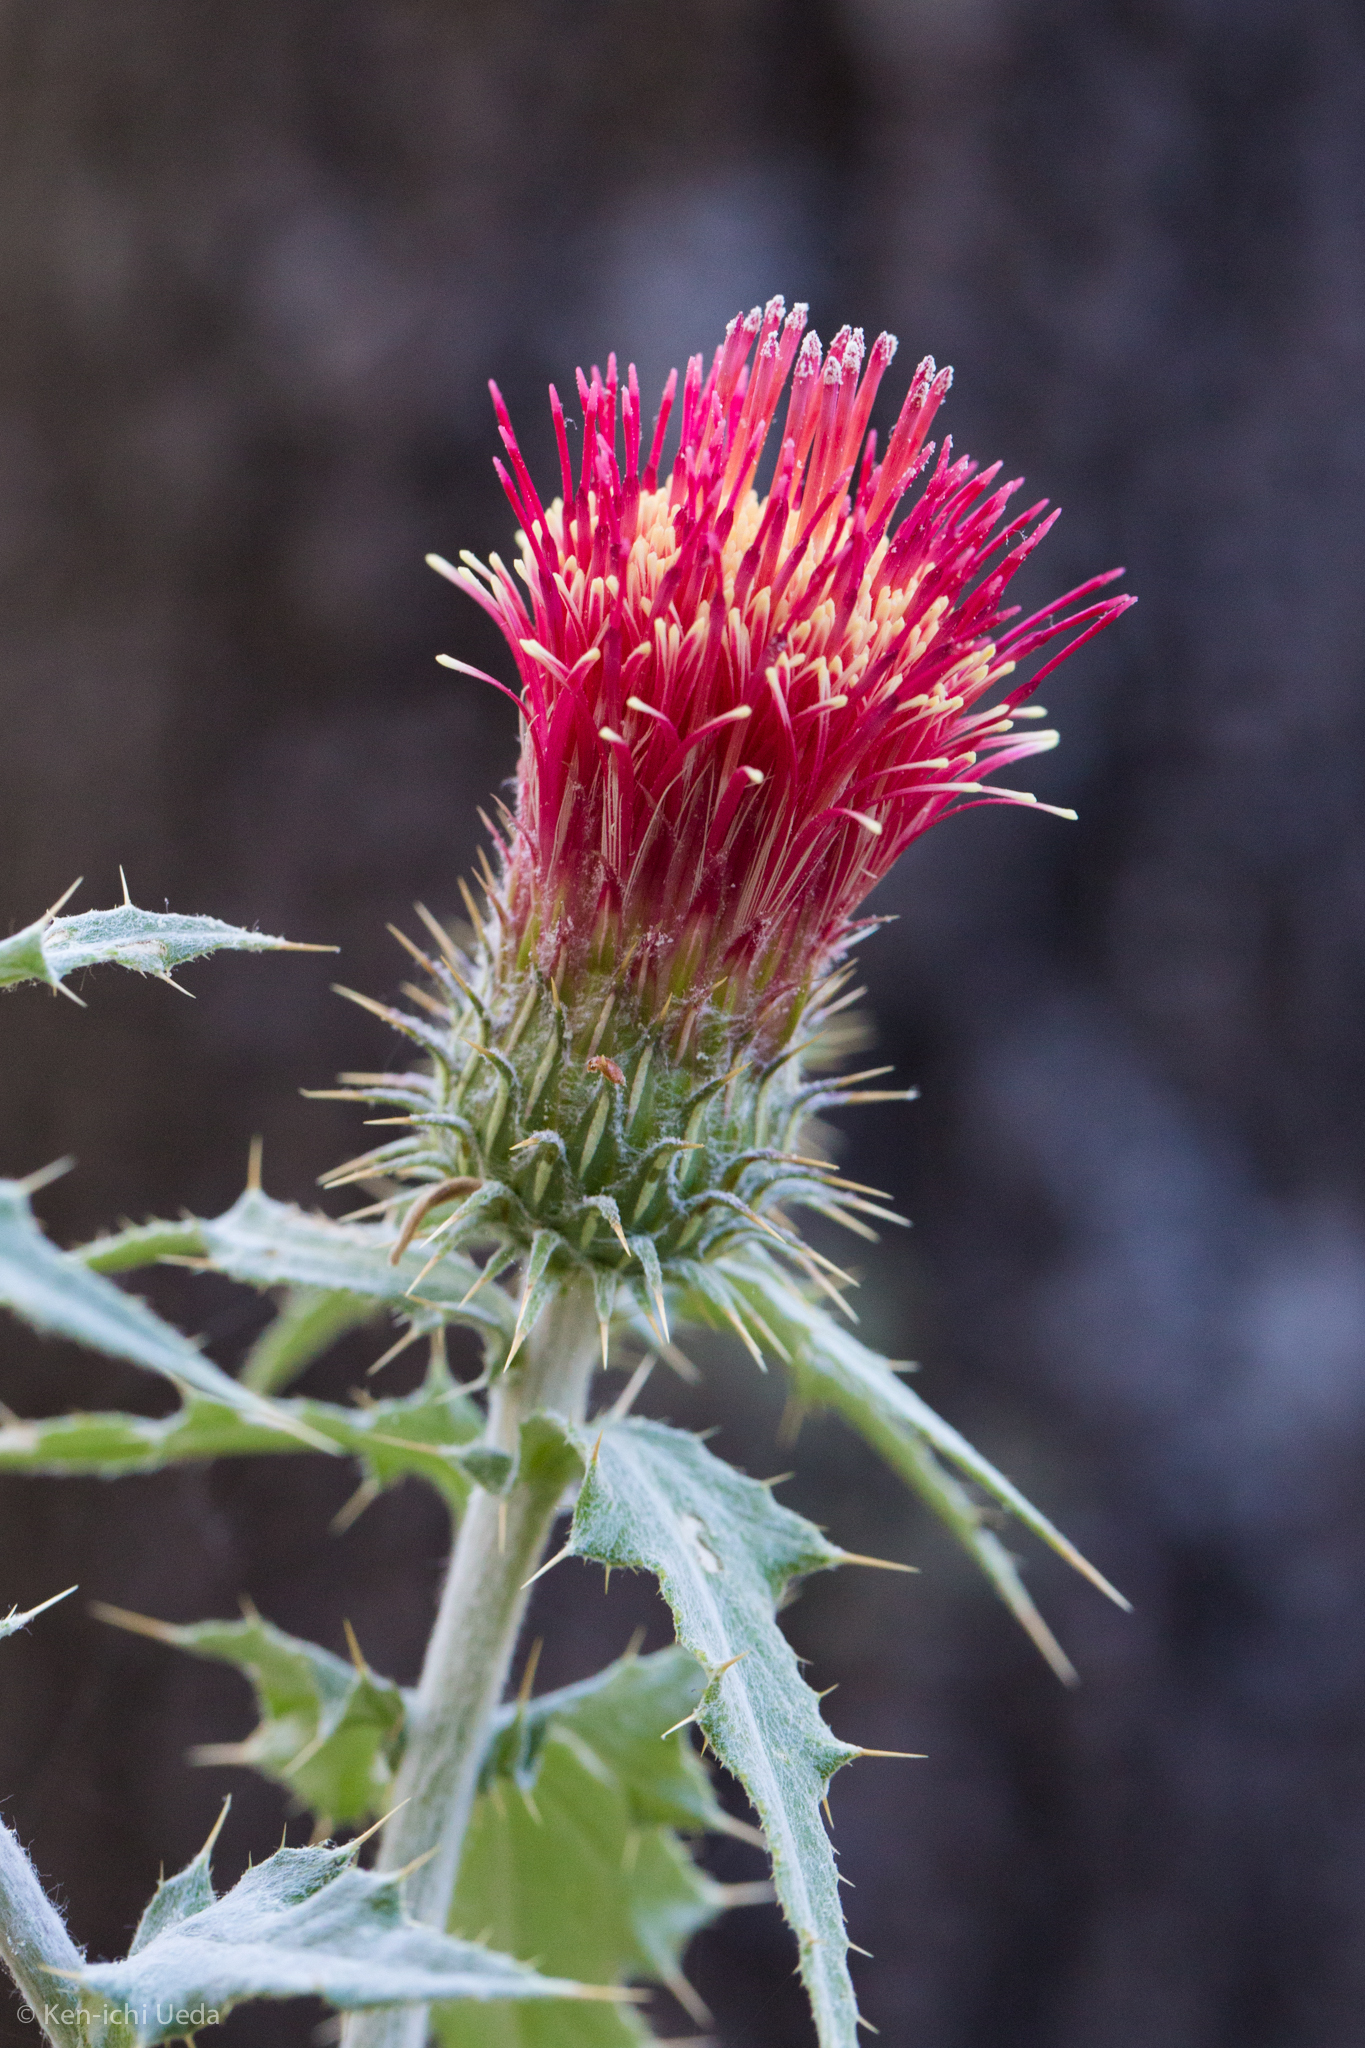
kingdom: Plantae
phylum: Tracheophyta
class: Magnoliopsida
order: Asterales
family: Asteraceae
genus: Cirsium
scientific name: Cirsium arizonicum
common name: Arizona thistle
